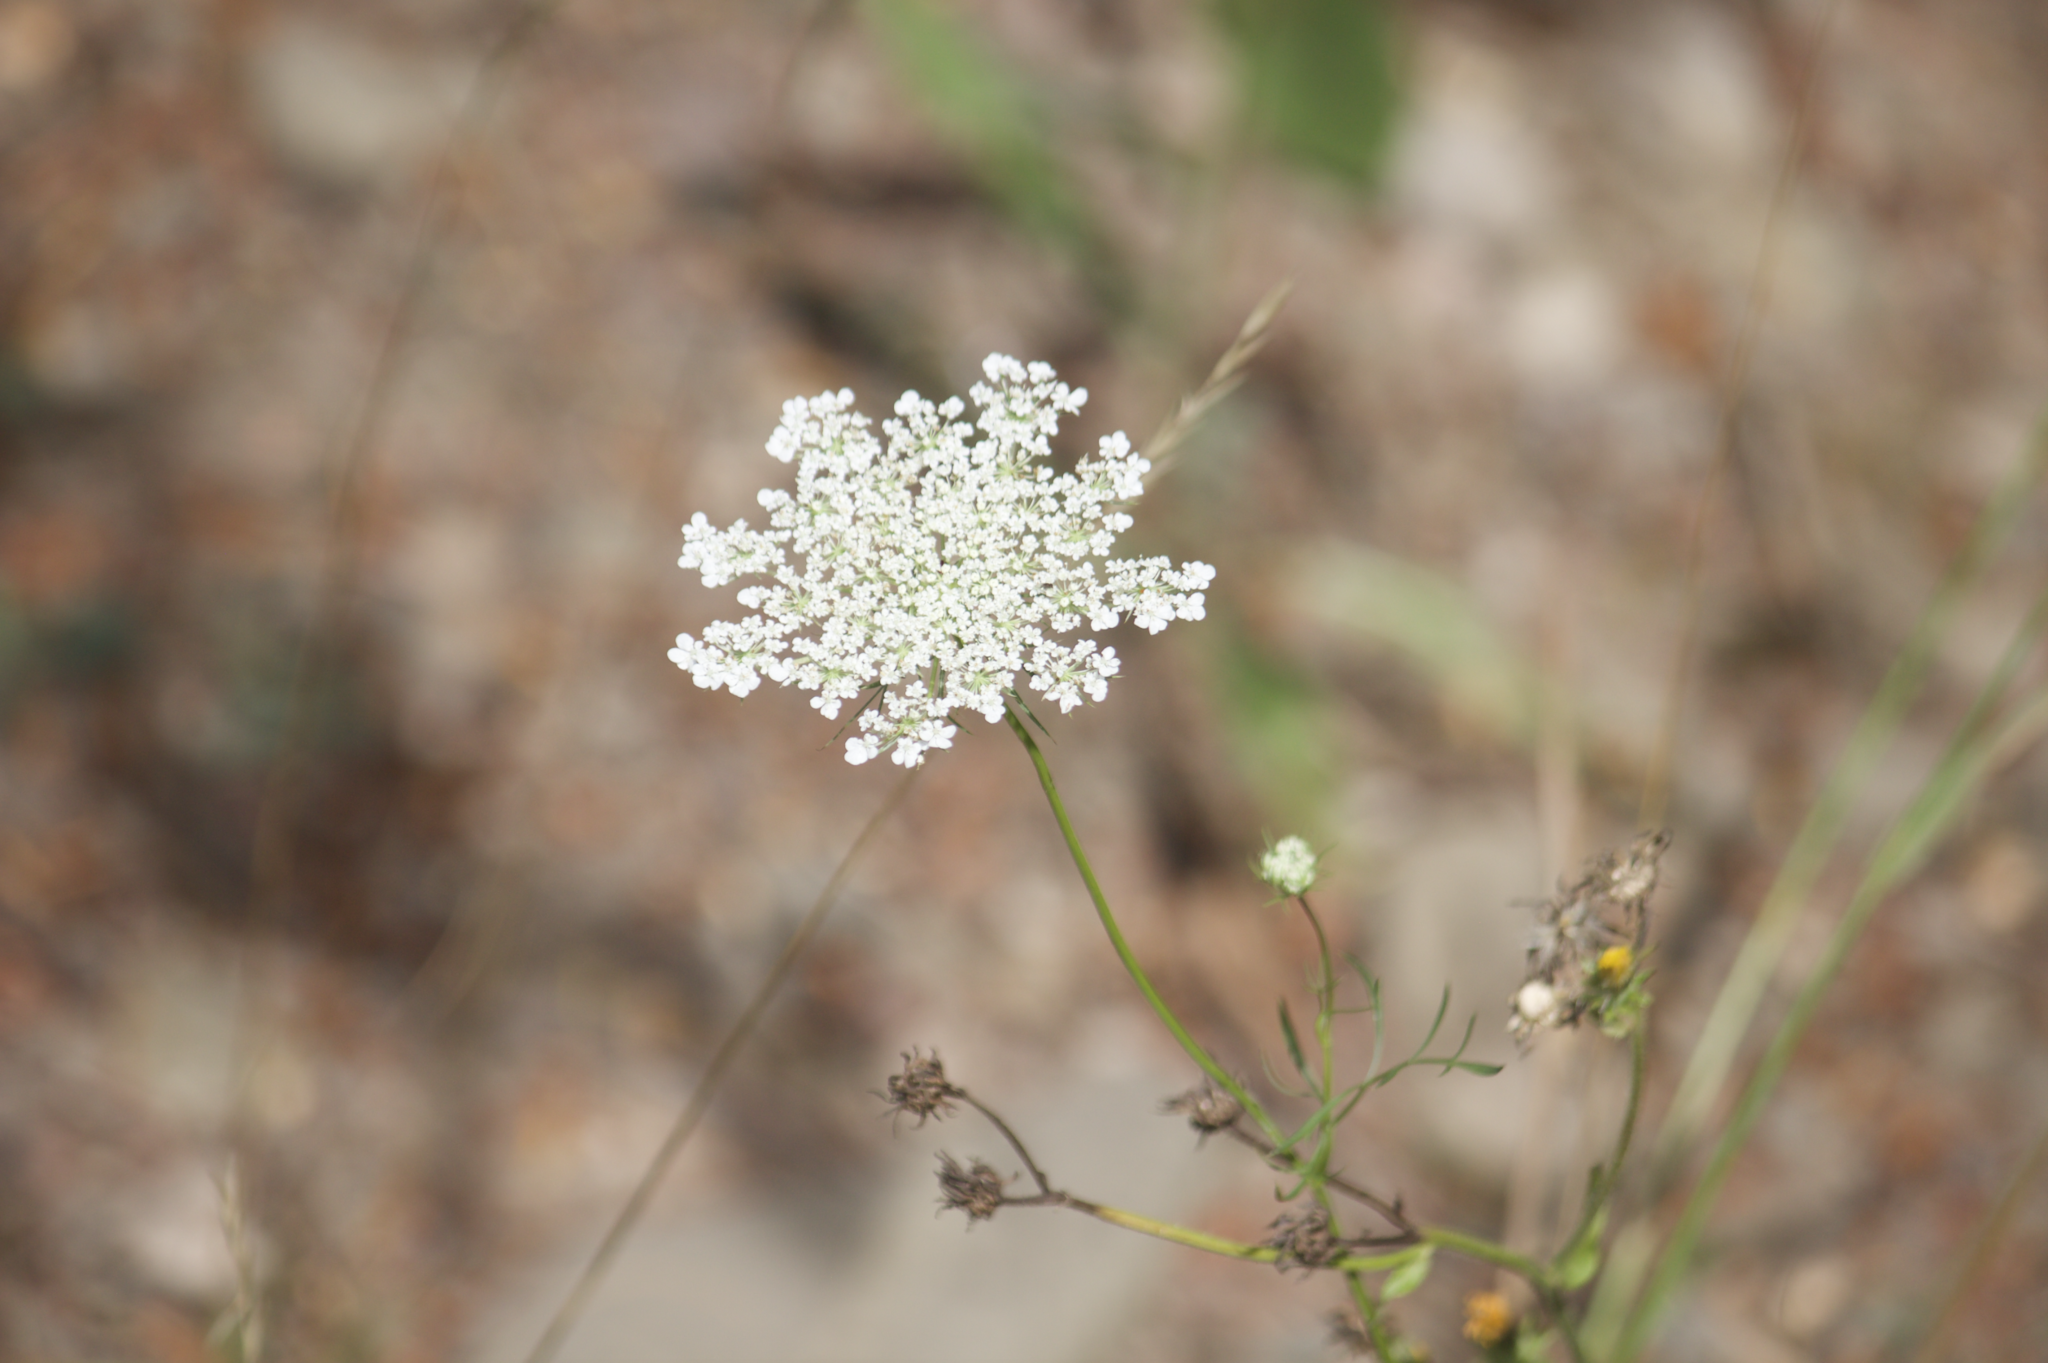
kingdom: Plantae
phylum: Tracheophyta
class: Magnoliopsida
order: Apiales
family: Apiaceae
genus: Daucus
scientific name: Daucus carota
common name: Wild carrot
